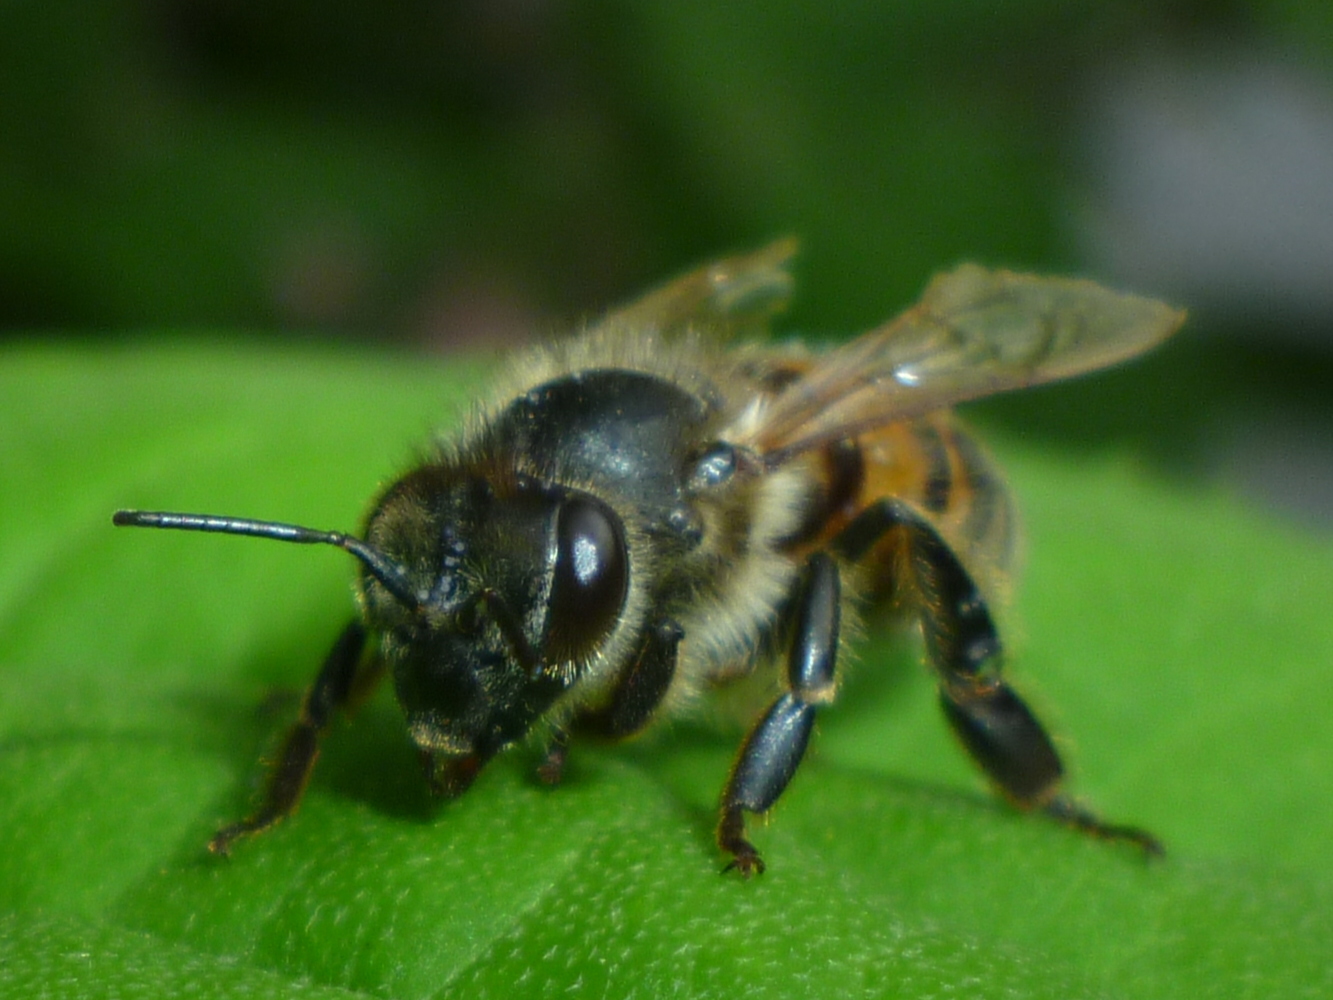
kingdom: Animalia
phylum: Arthropoda
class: Insecta
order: Hymenoptera
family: Apidae
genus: Apis
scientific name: Apis mellifera
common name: Honey bee
